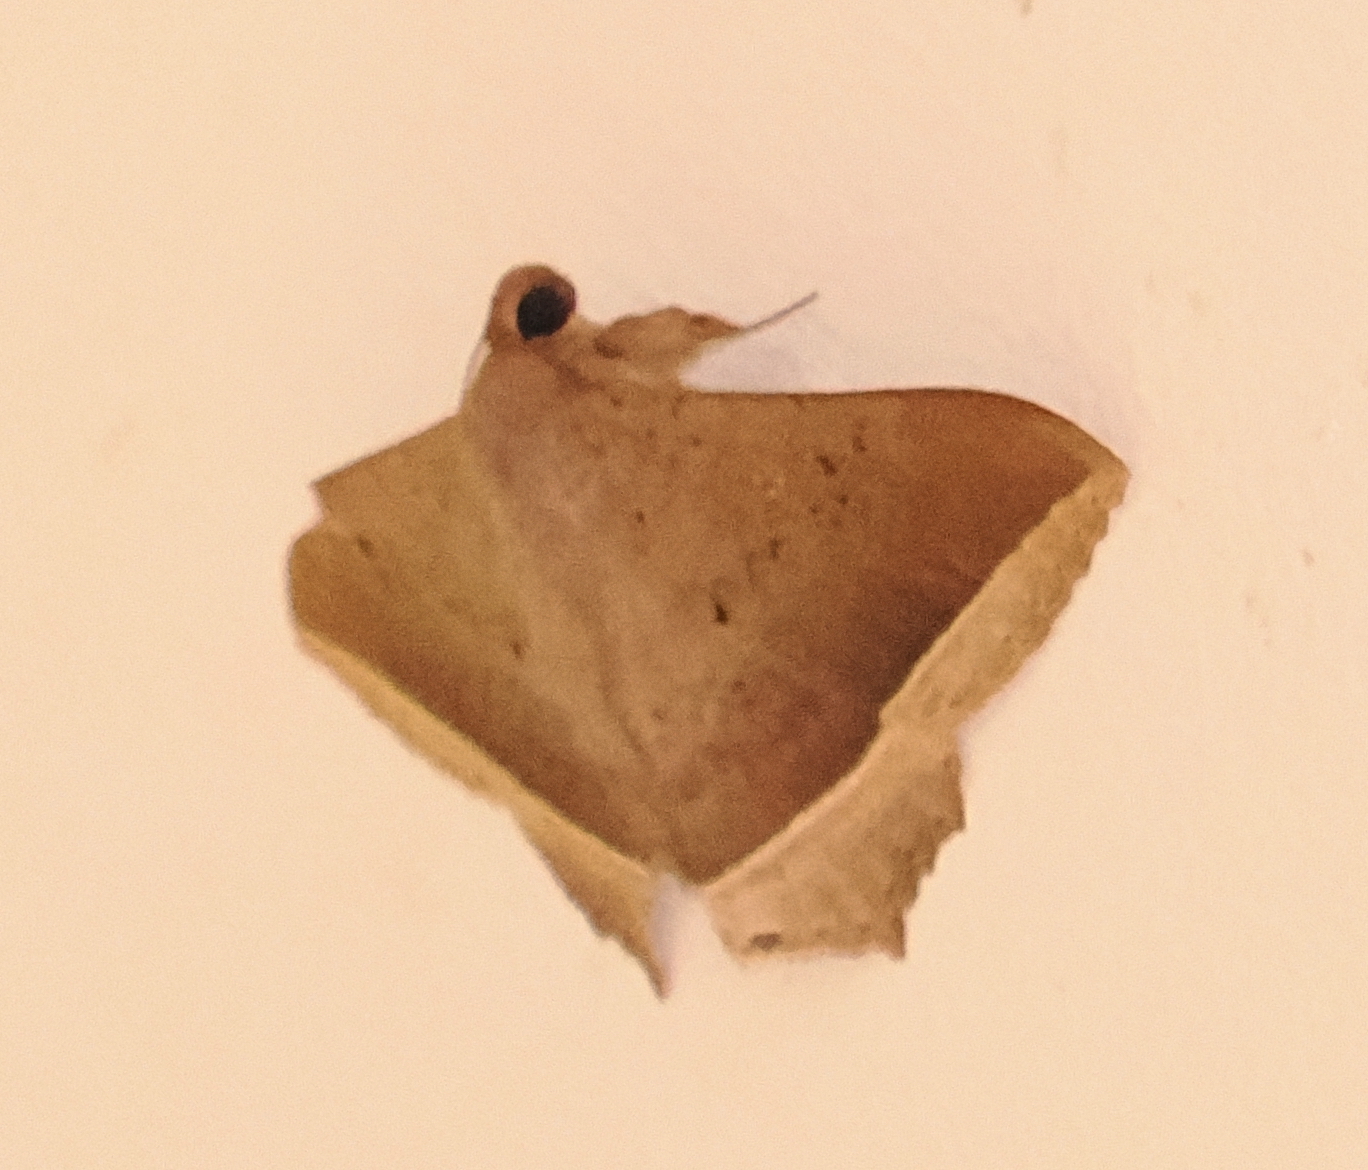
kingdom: Animalia
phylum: Arthropoda
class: Insecta
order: Lepidoptera
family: Erebidae
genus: Hulodes
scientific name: Hulodes caranea
